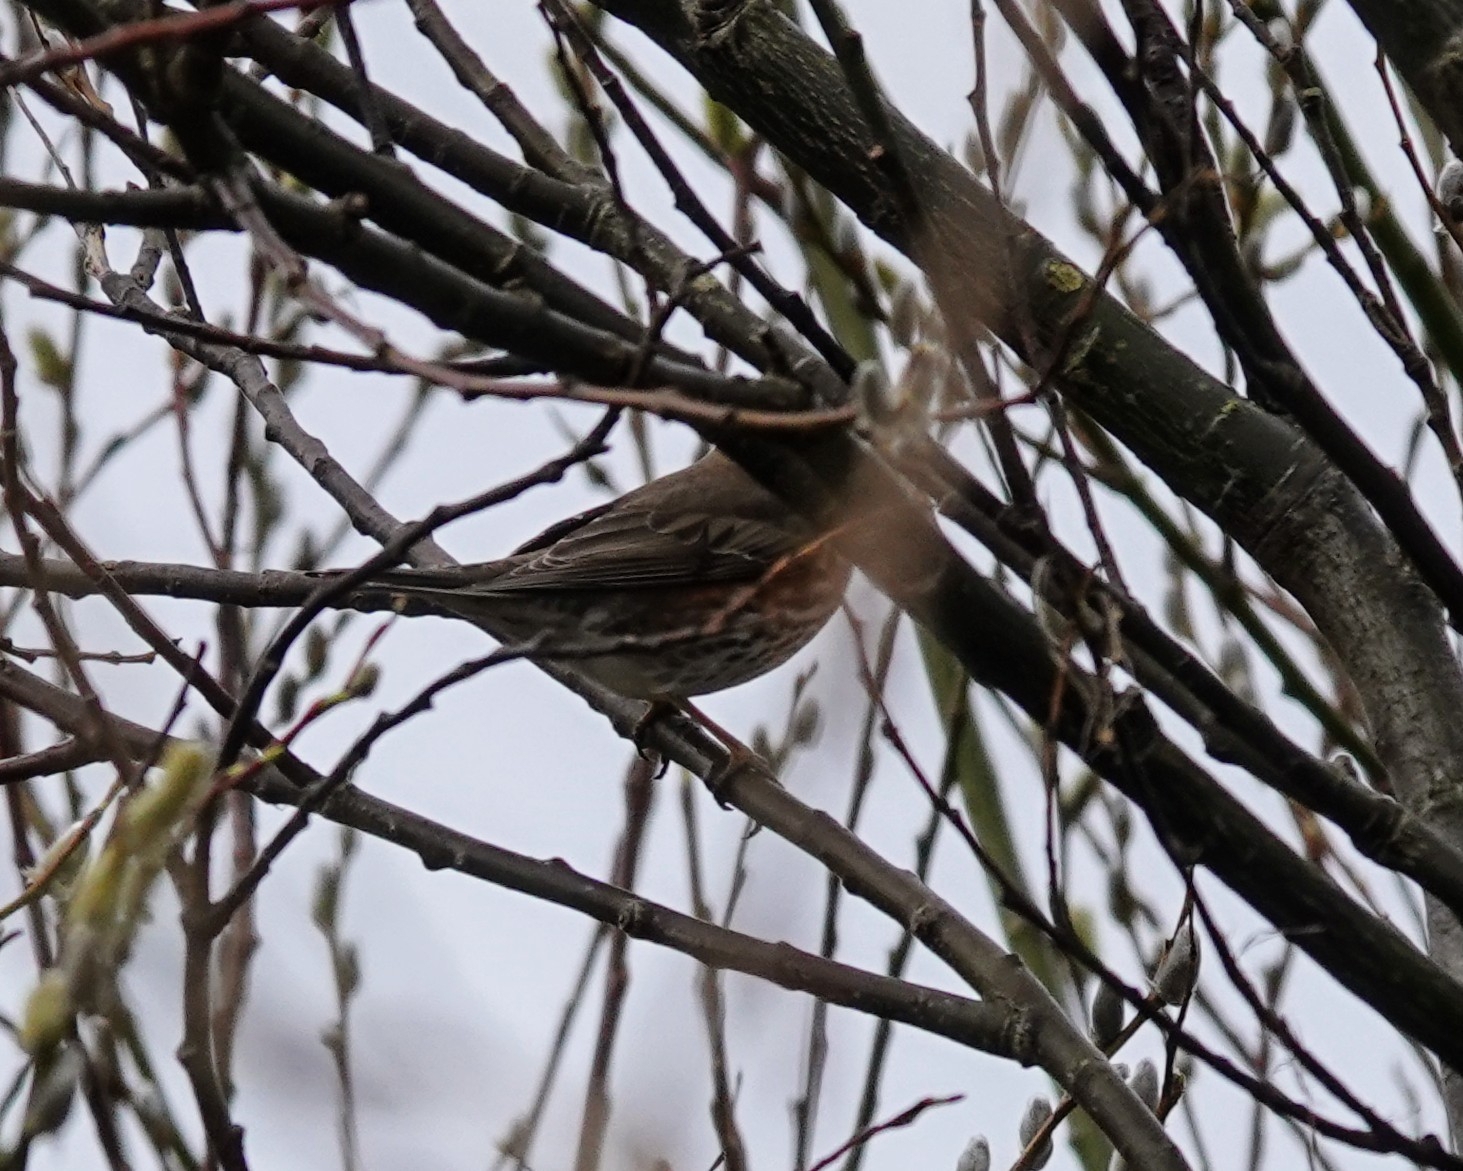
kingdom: Animalia
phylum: Chordata
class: Aves
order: Passeriformes
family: Turdidae
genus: Turdus
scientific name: Turdus iliacus
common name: Redwing
